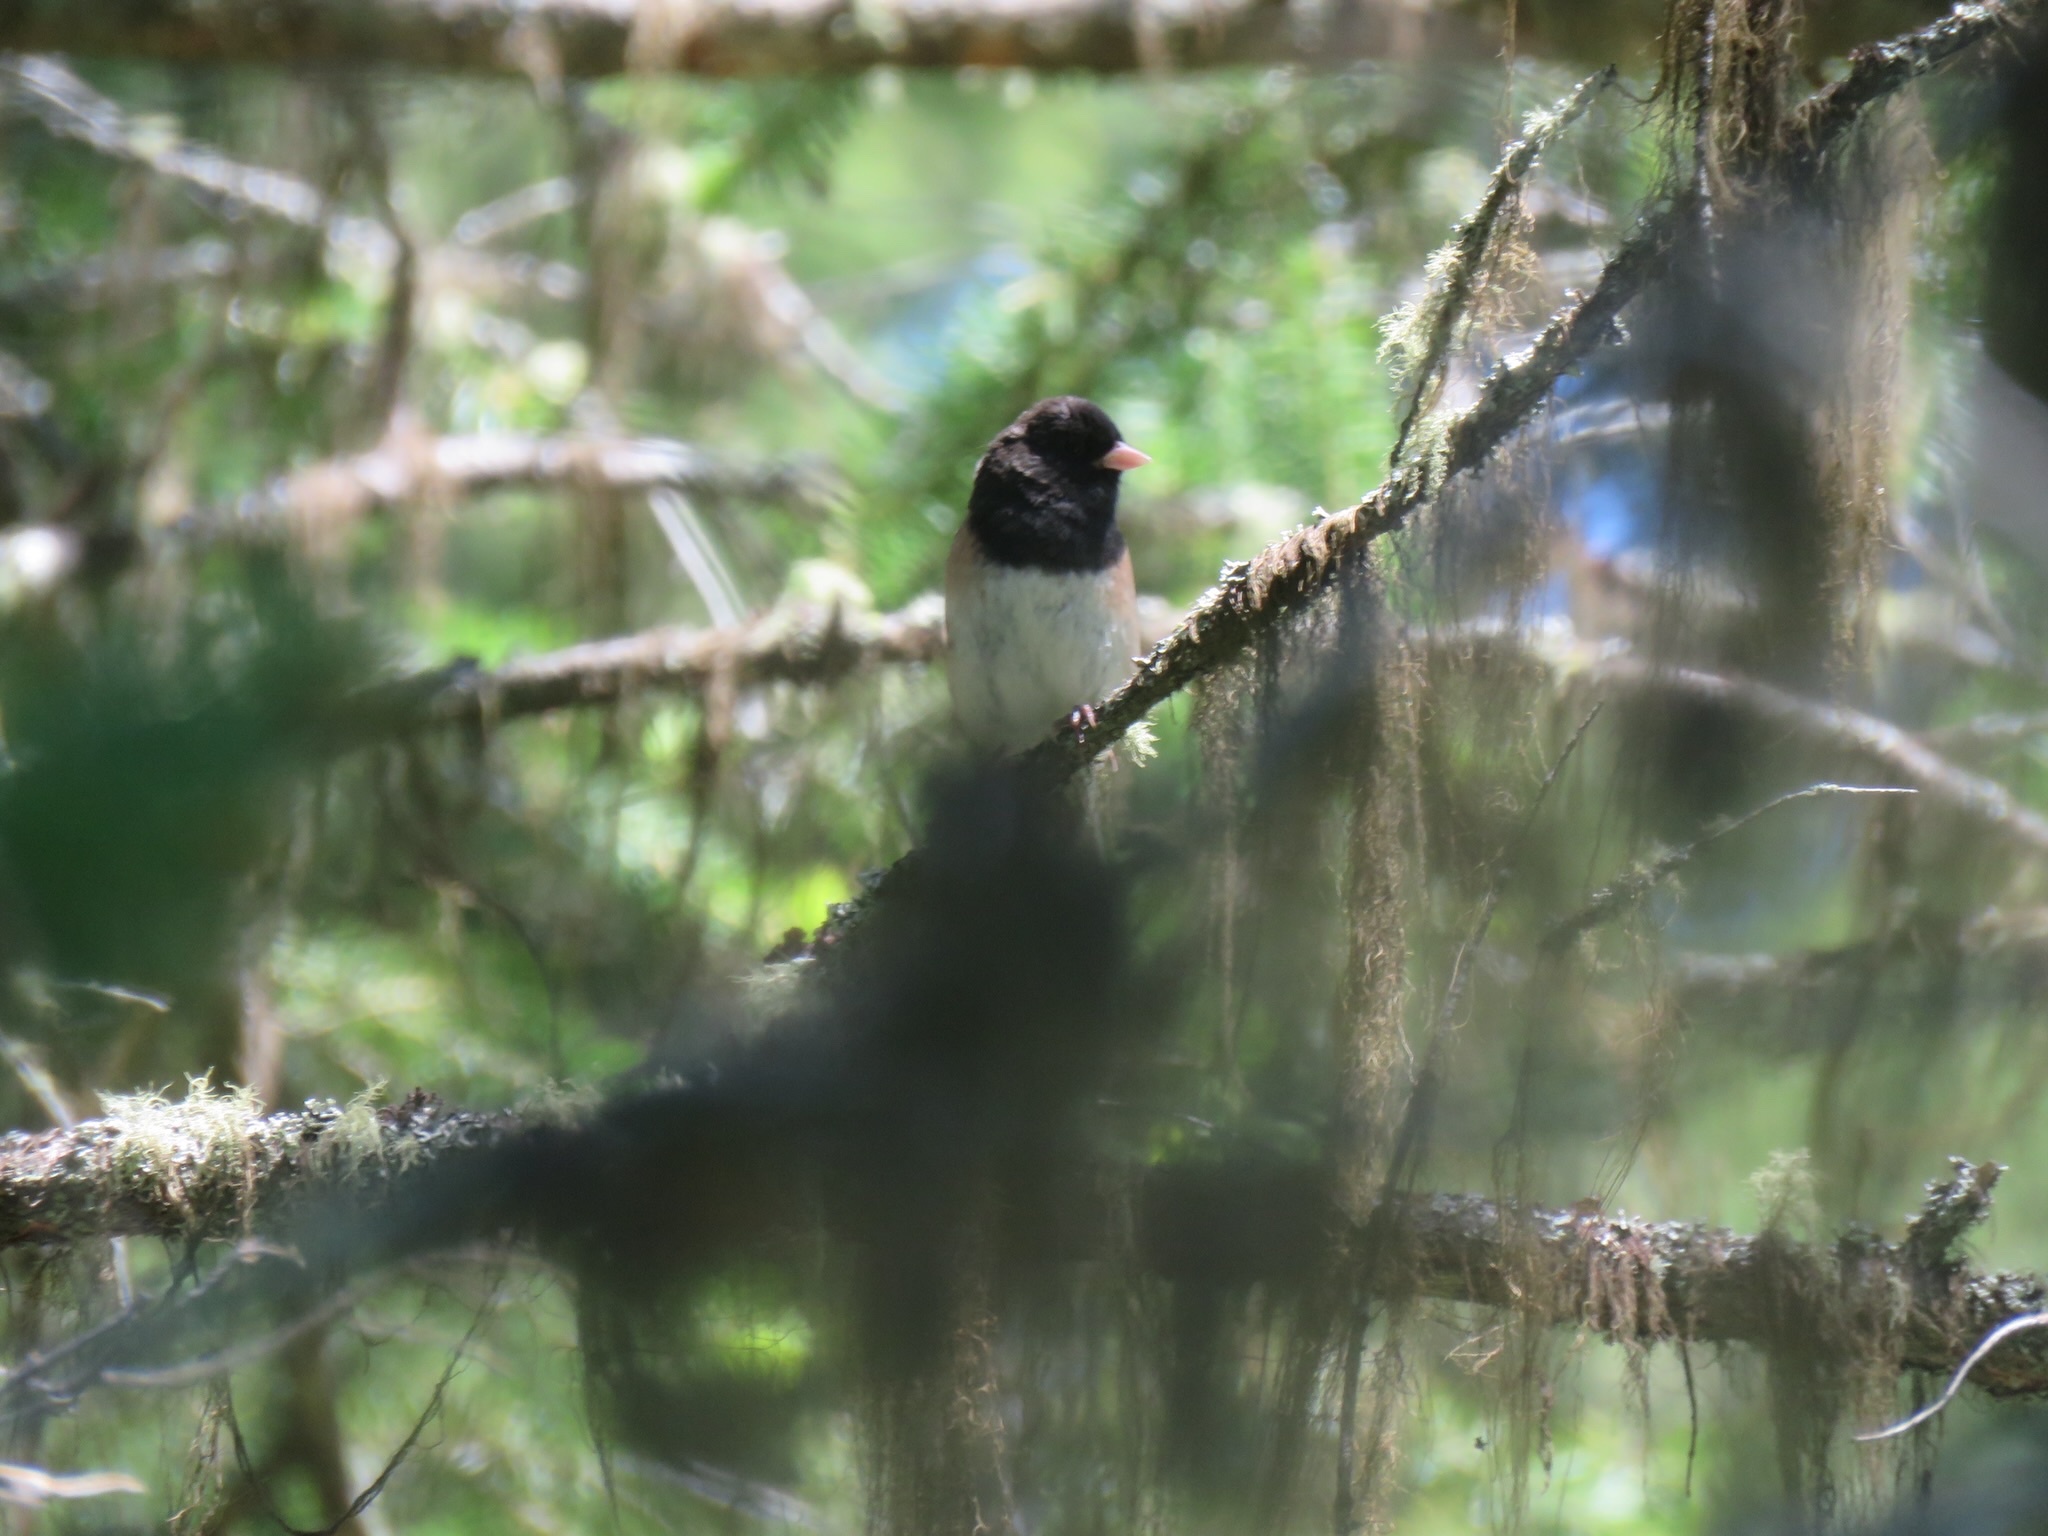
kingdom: Animalia
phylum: Chordata
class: Aves
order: Passeriformes
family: Passerellidae
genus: Junco
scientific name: Junco hyemalis
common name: Dark-eyed junco
